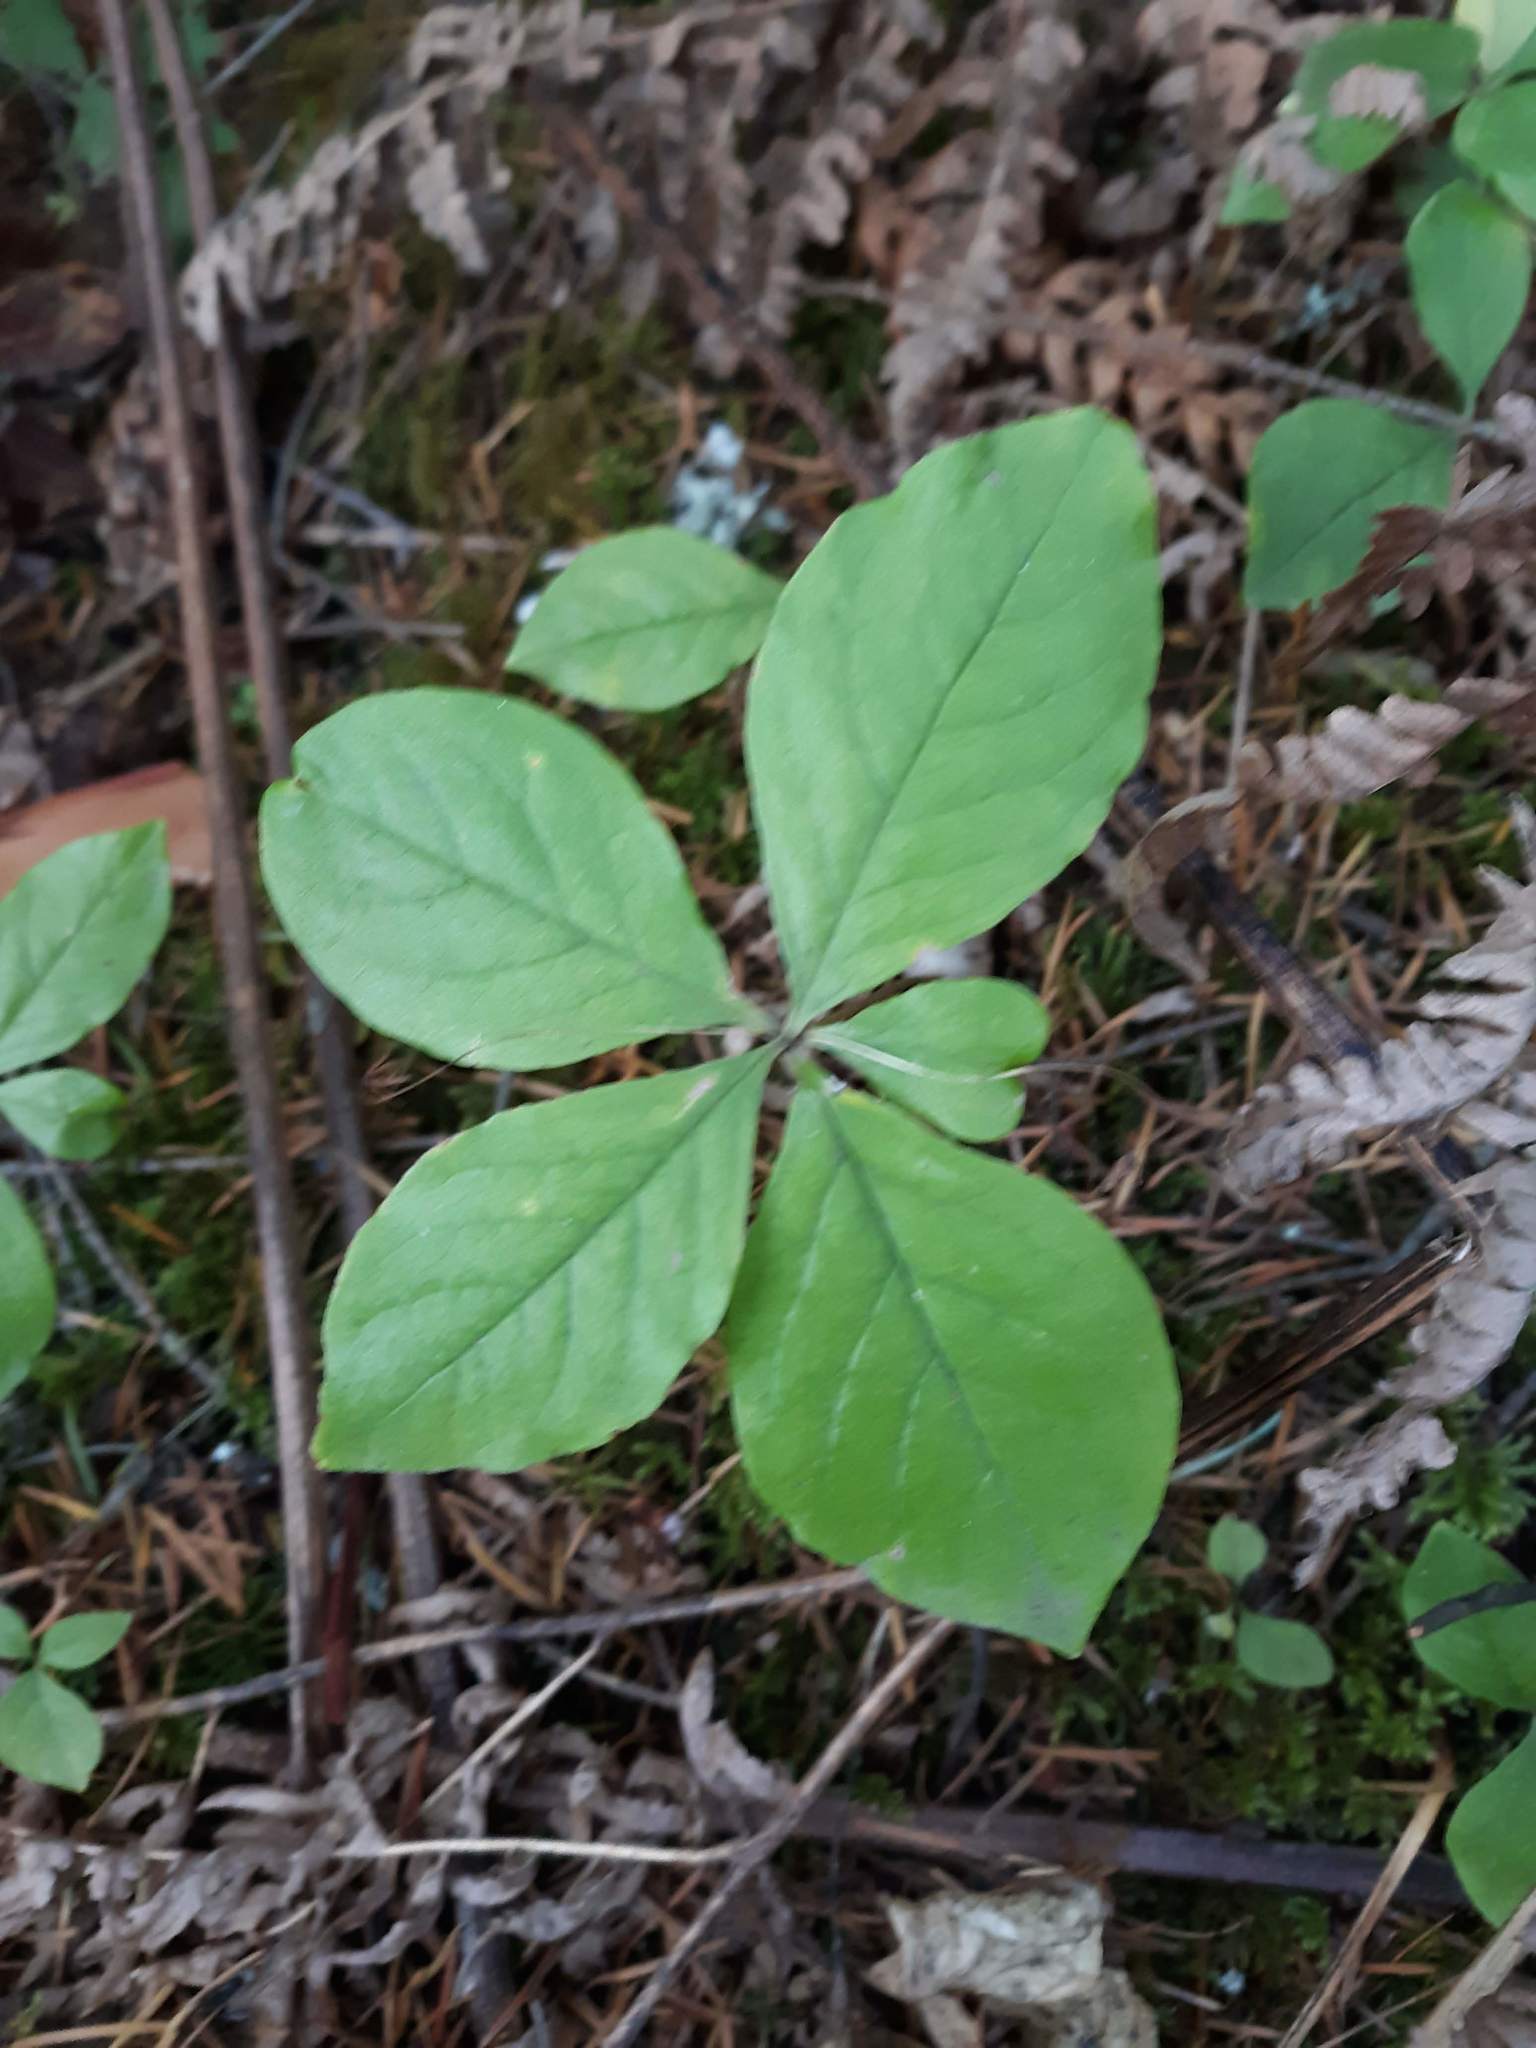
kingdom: Plantae
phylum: Tracheophyta
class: Magnoliopsida
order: Ericales
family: Primulaceae
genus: Lysimachia
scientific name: Lysimachia latifolia
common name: Pacific starflower
